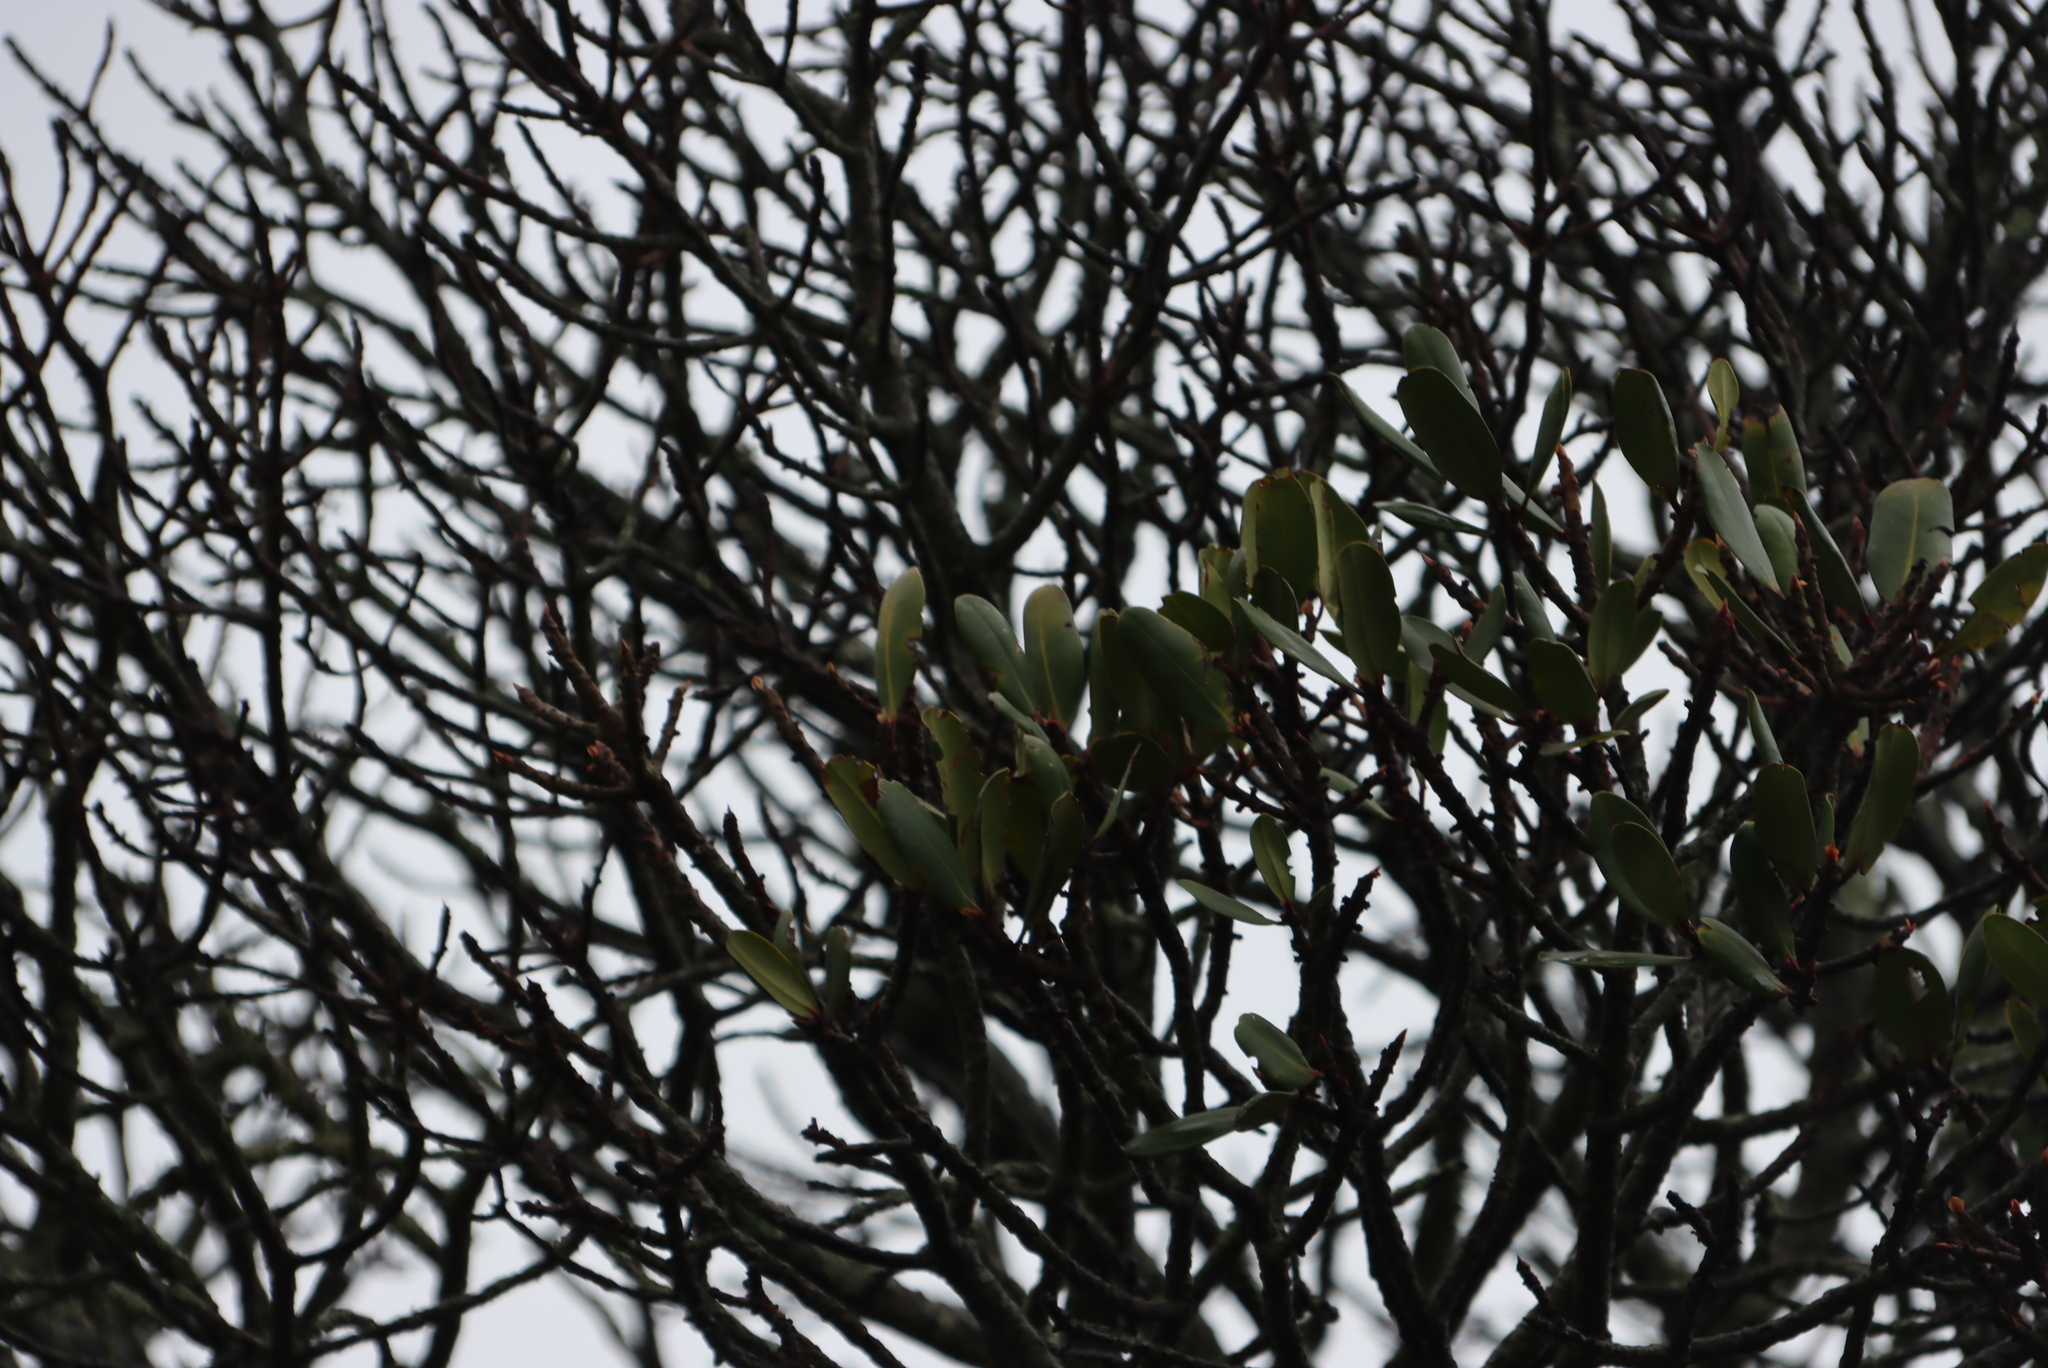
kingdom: Plantae
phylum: Tracheophyta
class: Magnoliopsida
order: Ericales
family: Primulaceae
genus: Myrsine
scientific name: Myrsine melanophloeos
